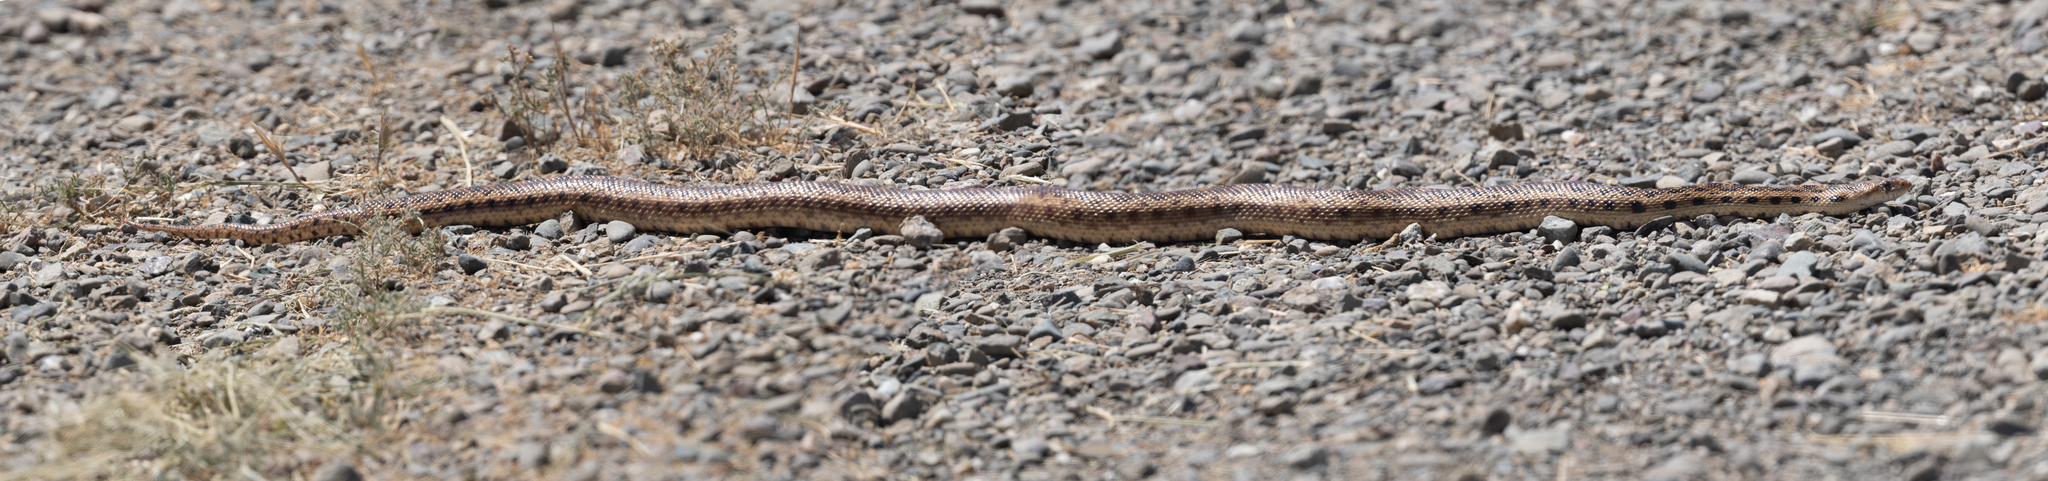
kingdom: Animalia
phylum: Chordata
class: Squamata
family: Colubridae
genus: Pituophis
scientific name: Pituophis catenifer
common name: Gopher snake
